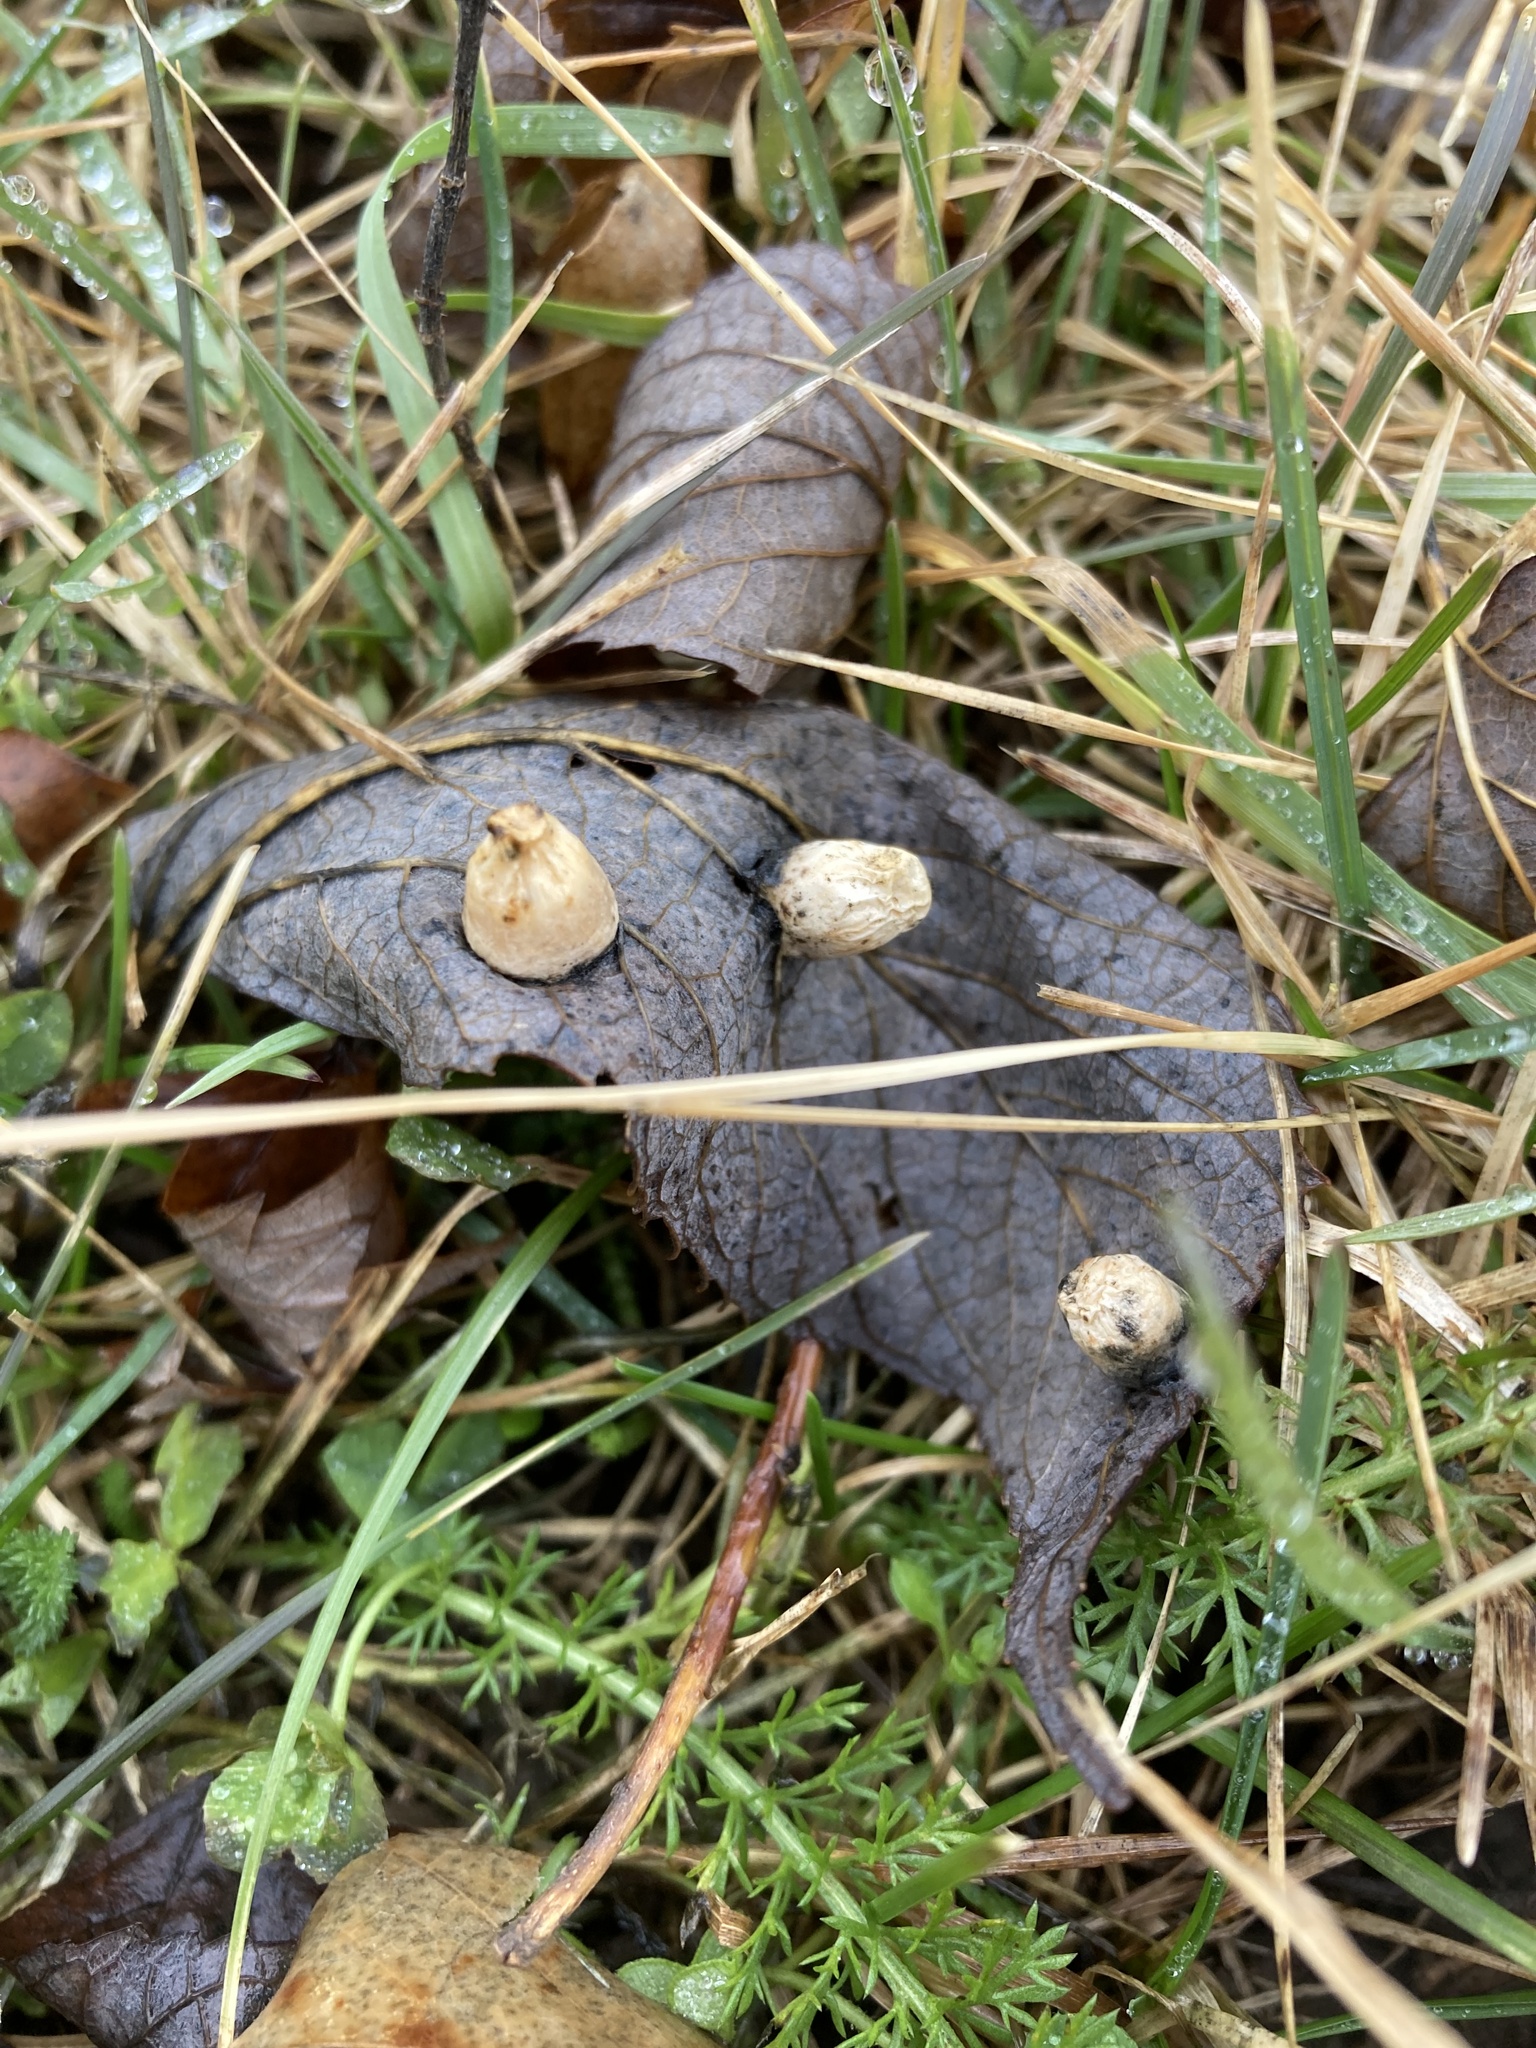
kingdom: Animalia
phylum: Arthropoda
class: Insecta
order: Hemiptera
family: Aphalaridae
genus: Pachypsylla
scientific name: Pachypsylla celtidismamma
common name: Hackberry nipplegall psyllid
